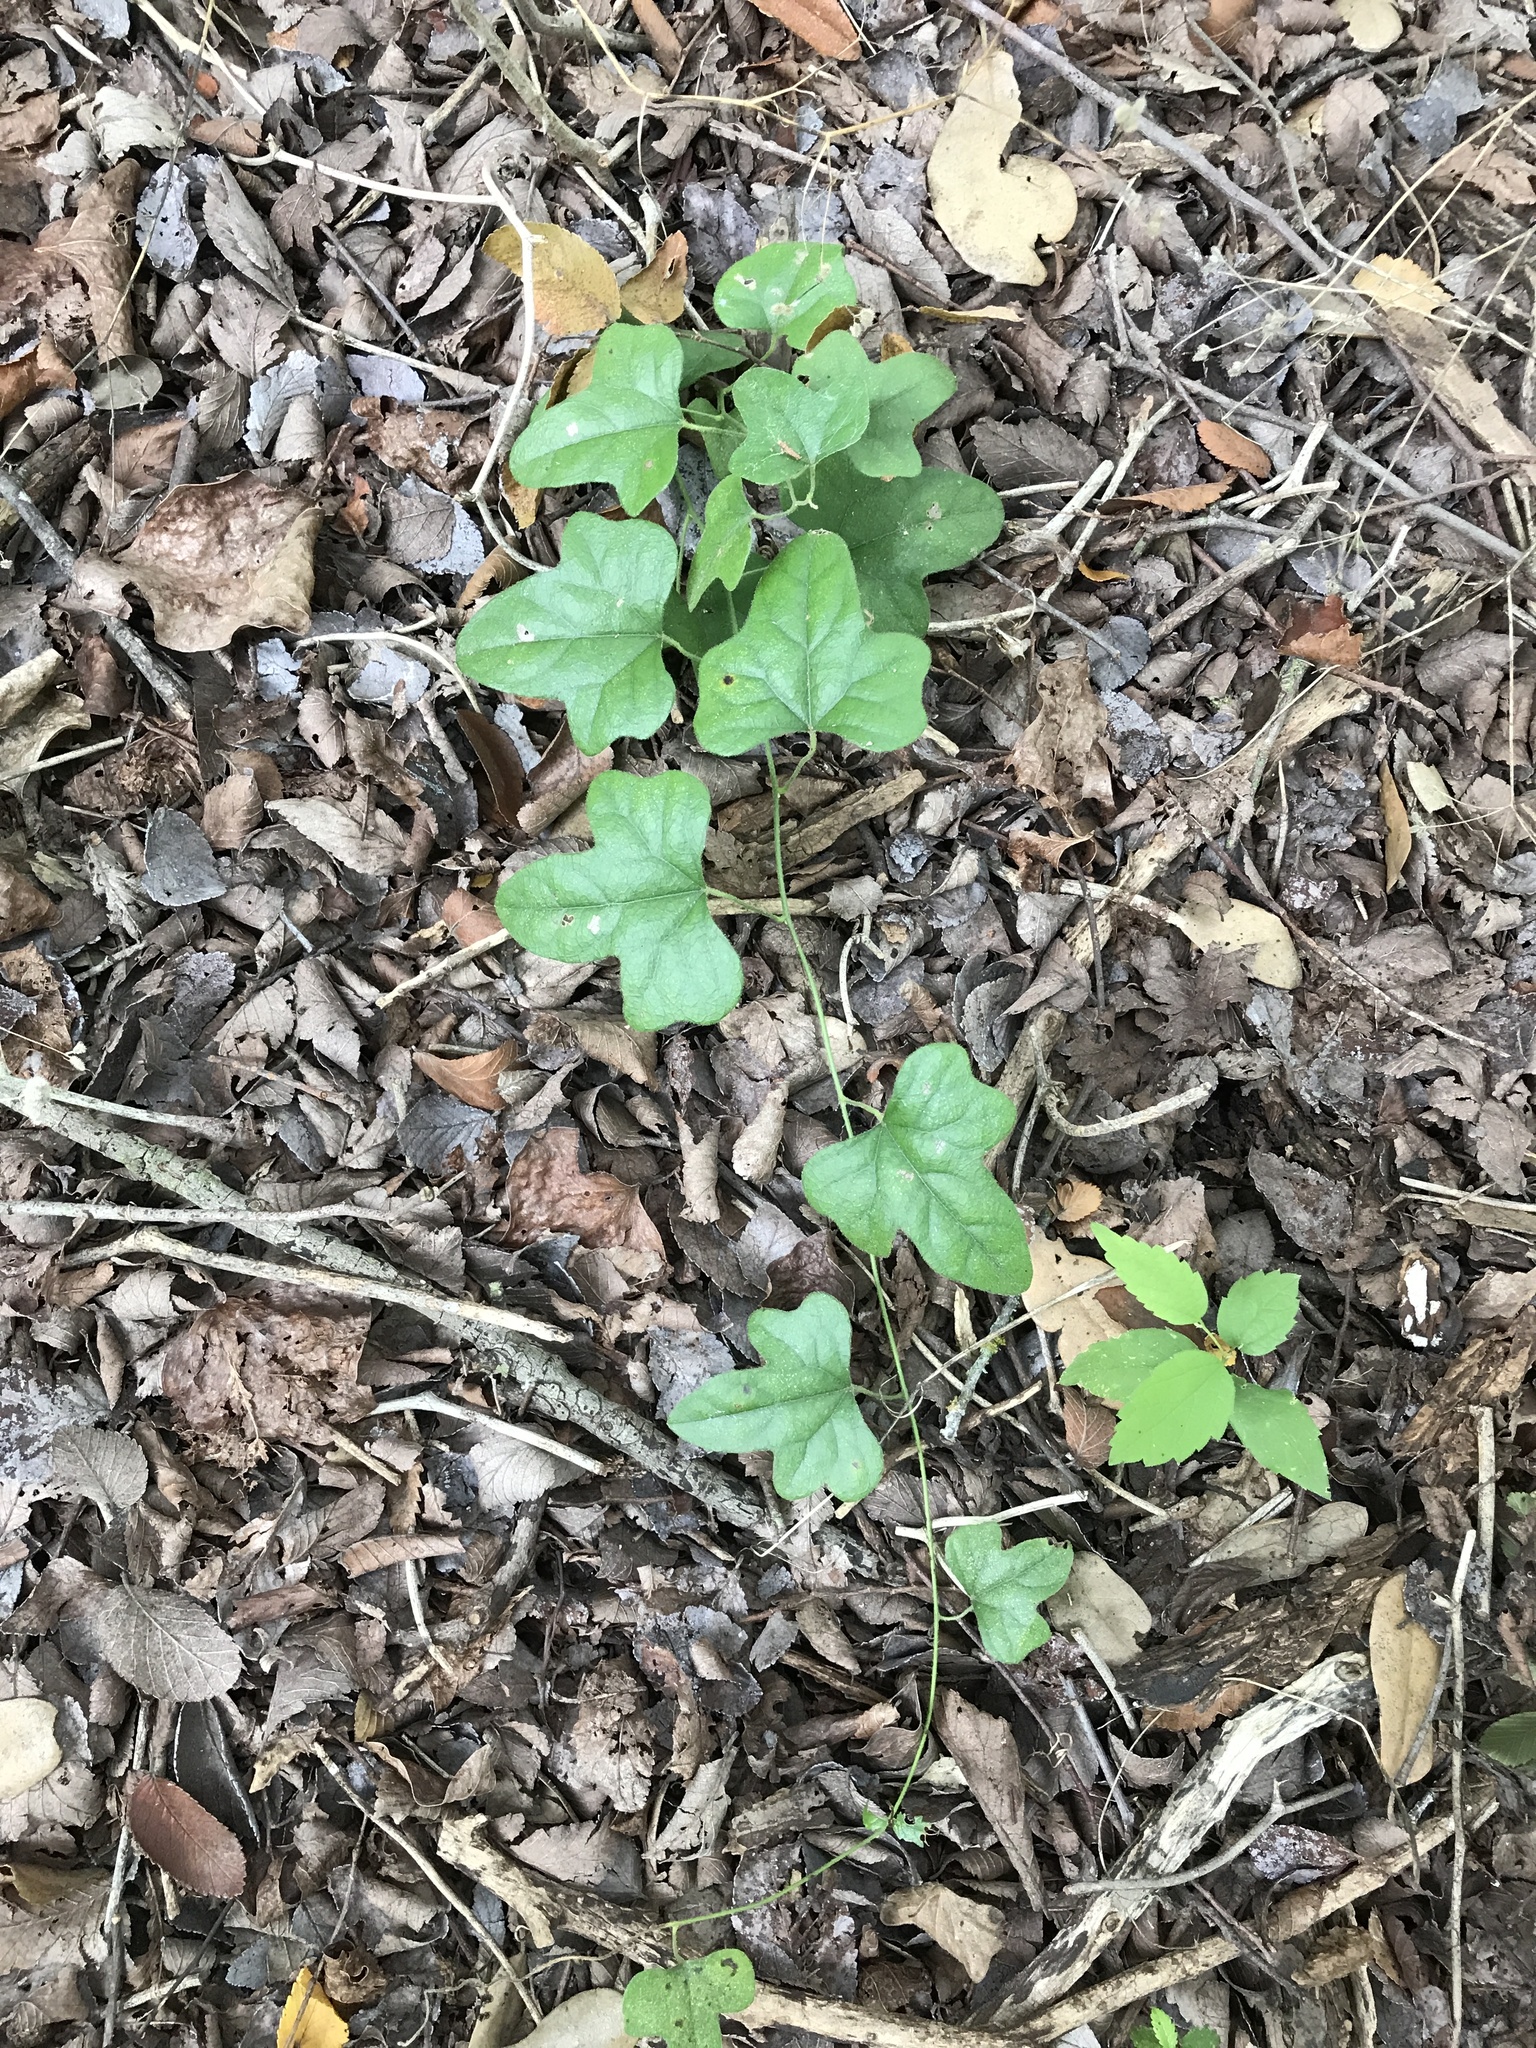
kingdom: Plantae
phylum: Tracheophyta
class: Magnoliopsida
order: Ranunculales
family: Menispermaceae
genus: Cocculus
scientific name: Cocculus carolinus
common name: Carolina moonseed
